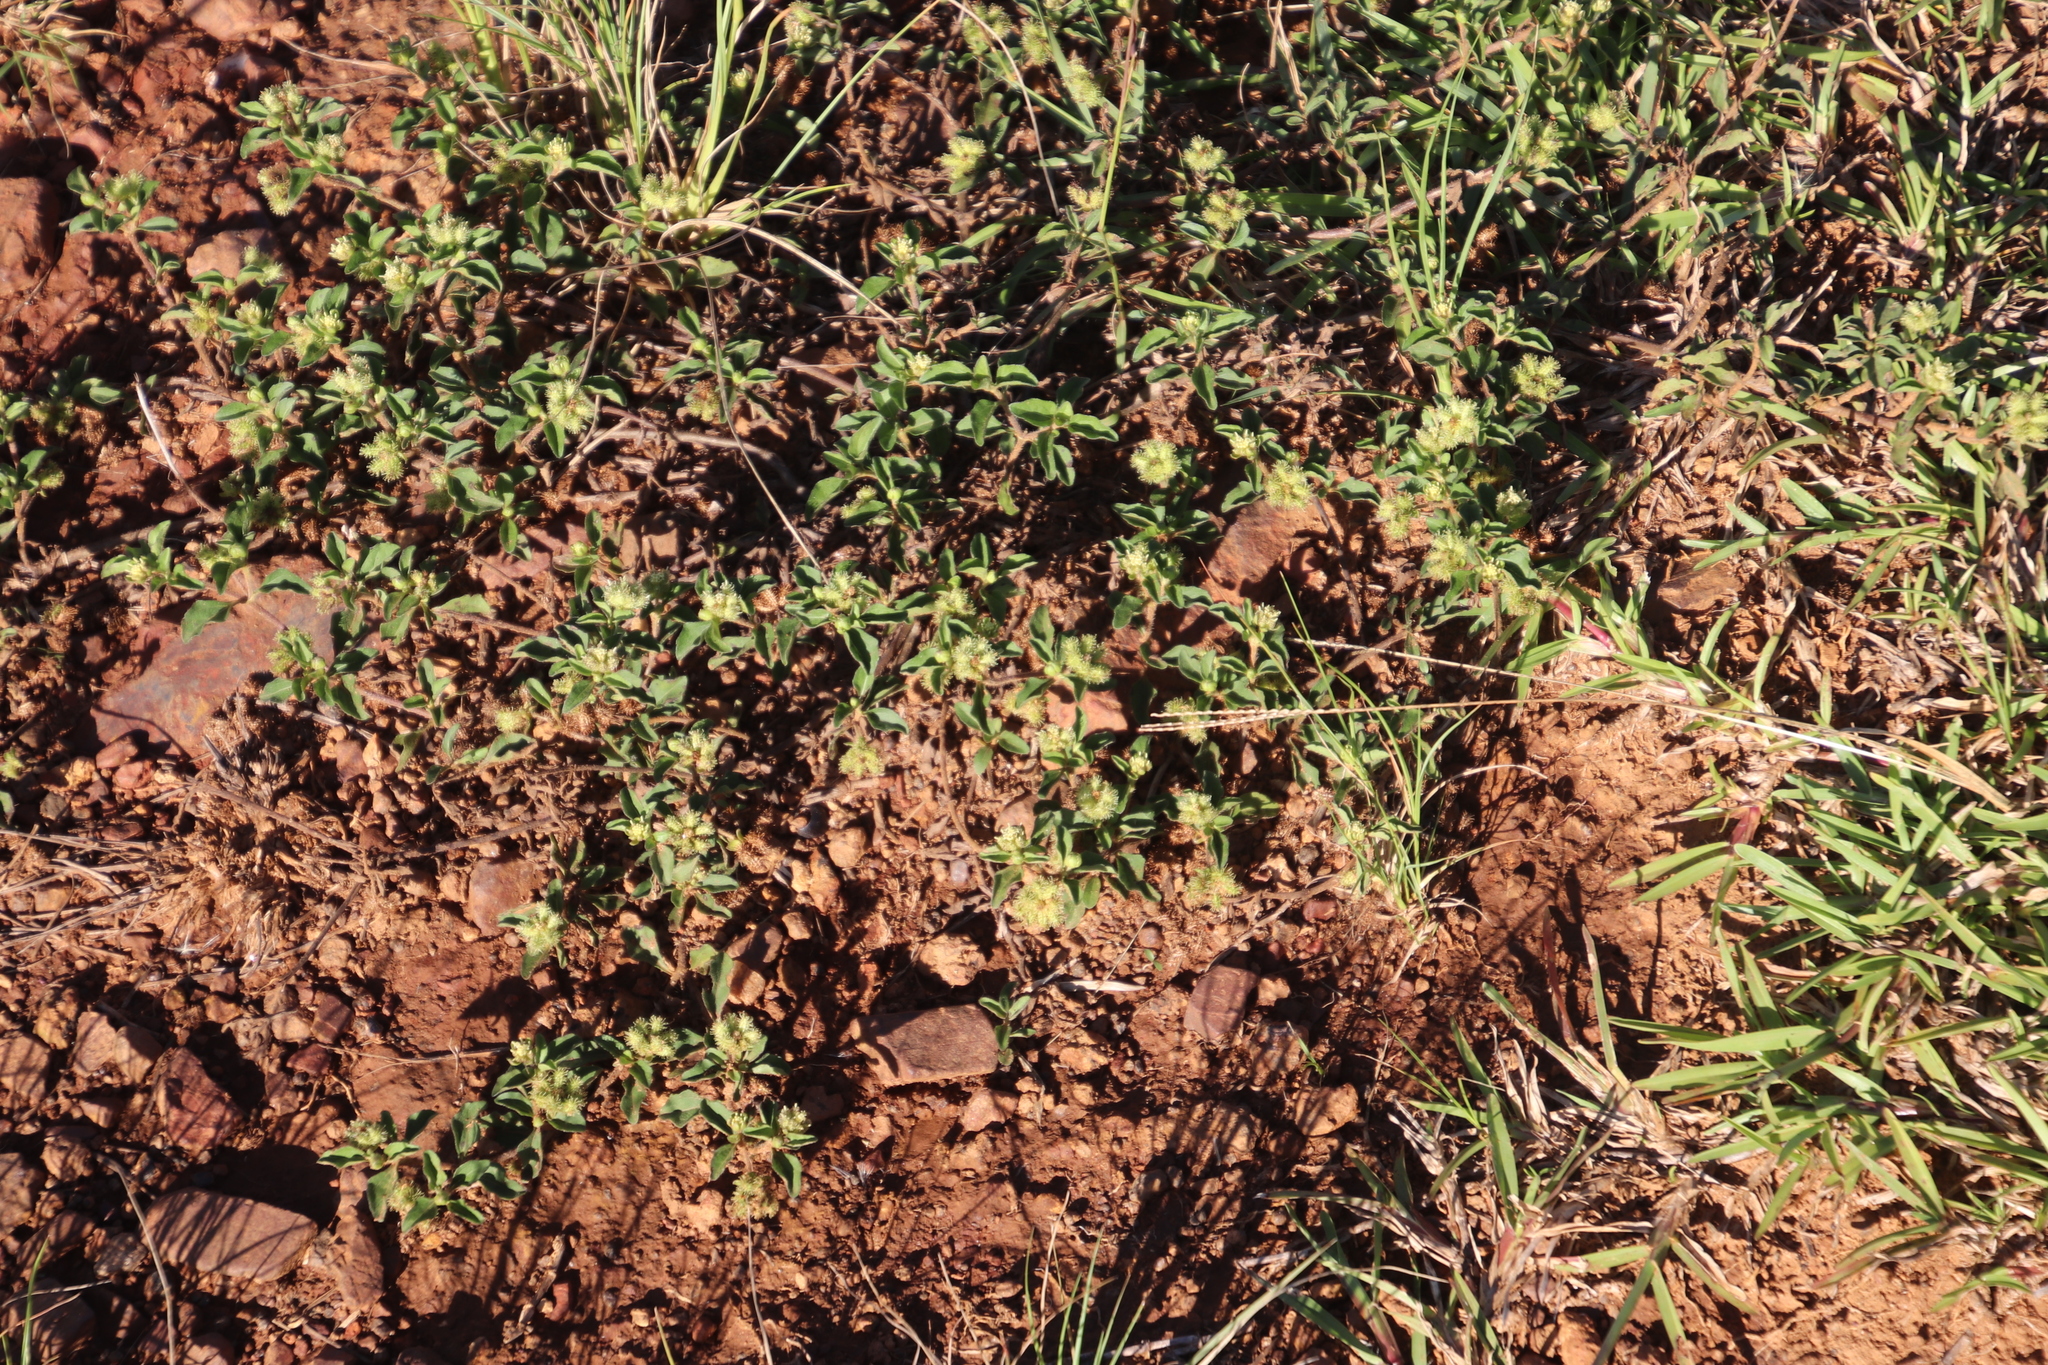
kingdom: Plantae
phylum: Tracheophyta
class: Magnoliopsida
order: Asterales
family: Asteraceae
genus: Acanthospermum
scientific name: Acanthospermum australe
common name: Paraguayan starbur
